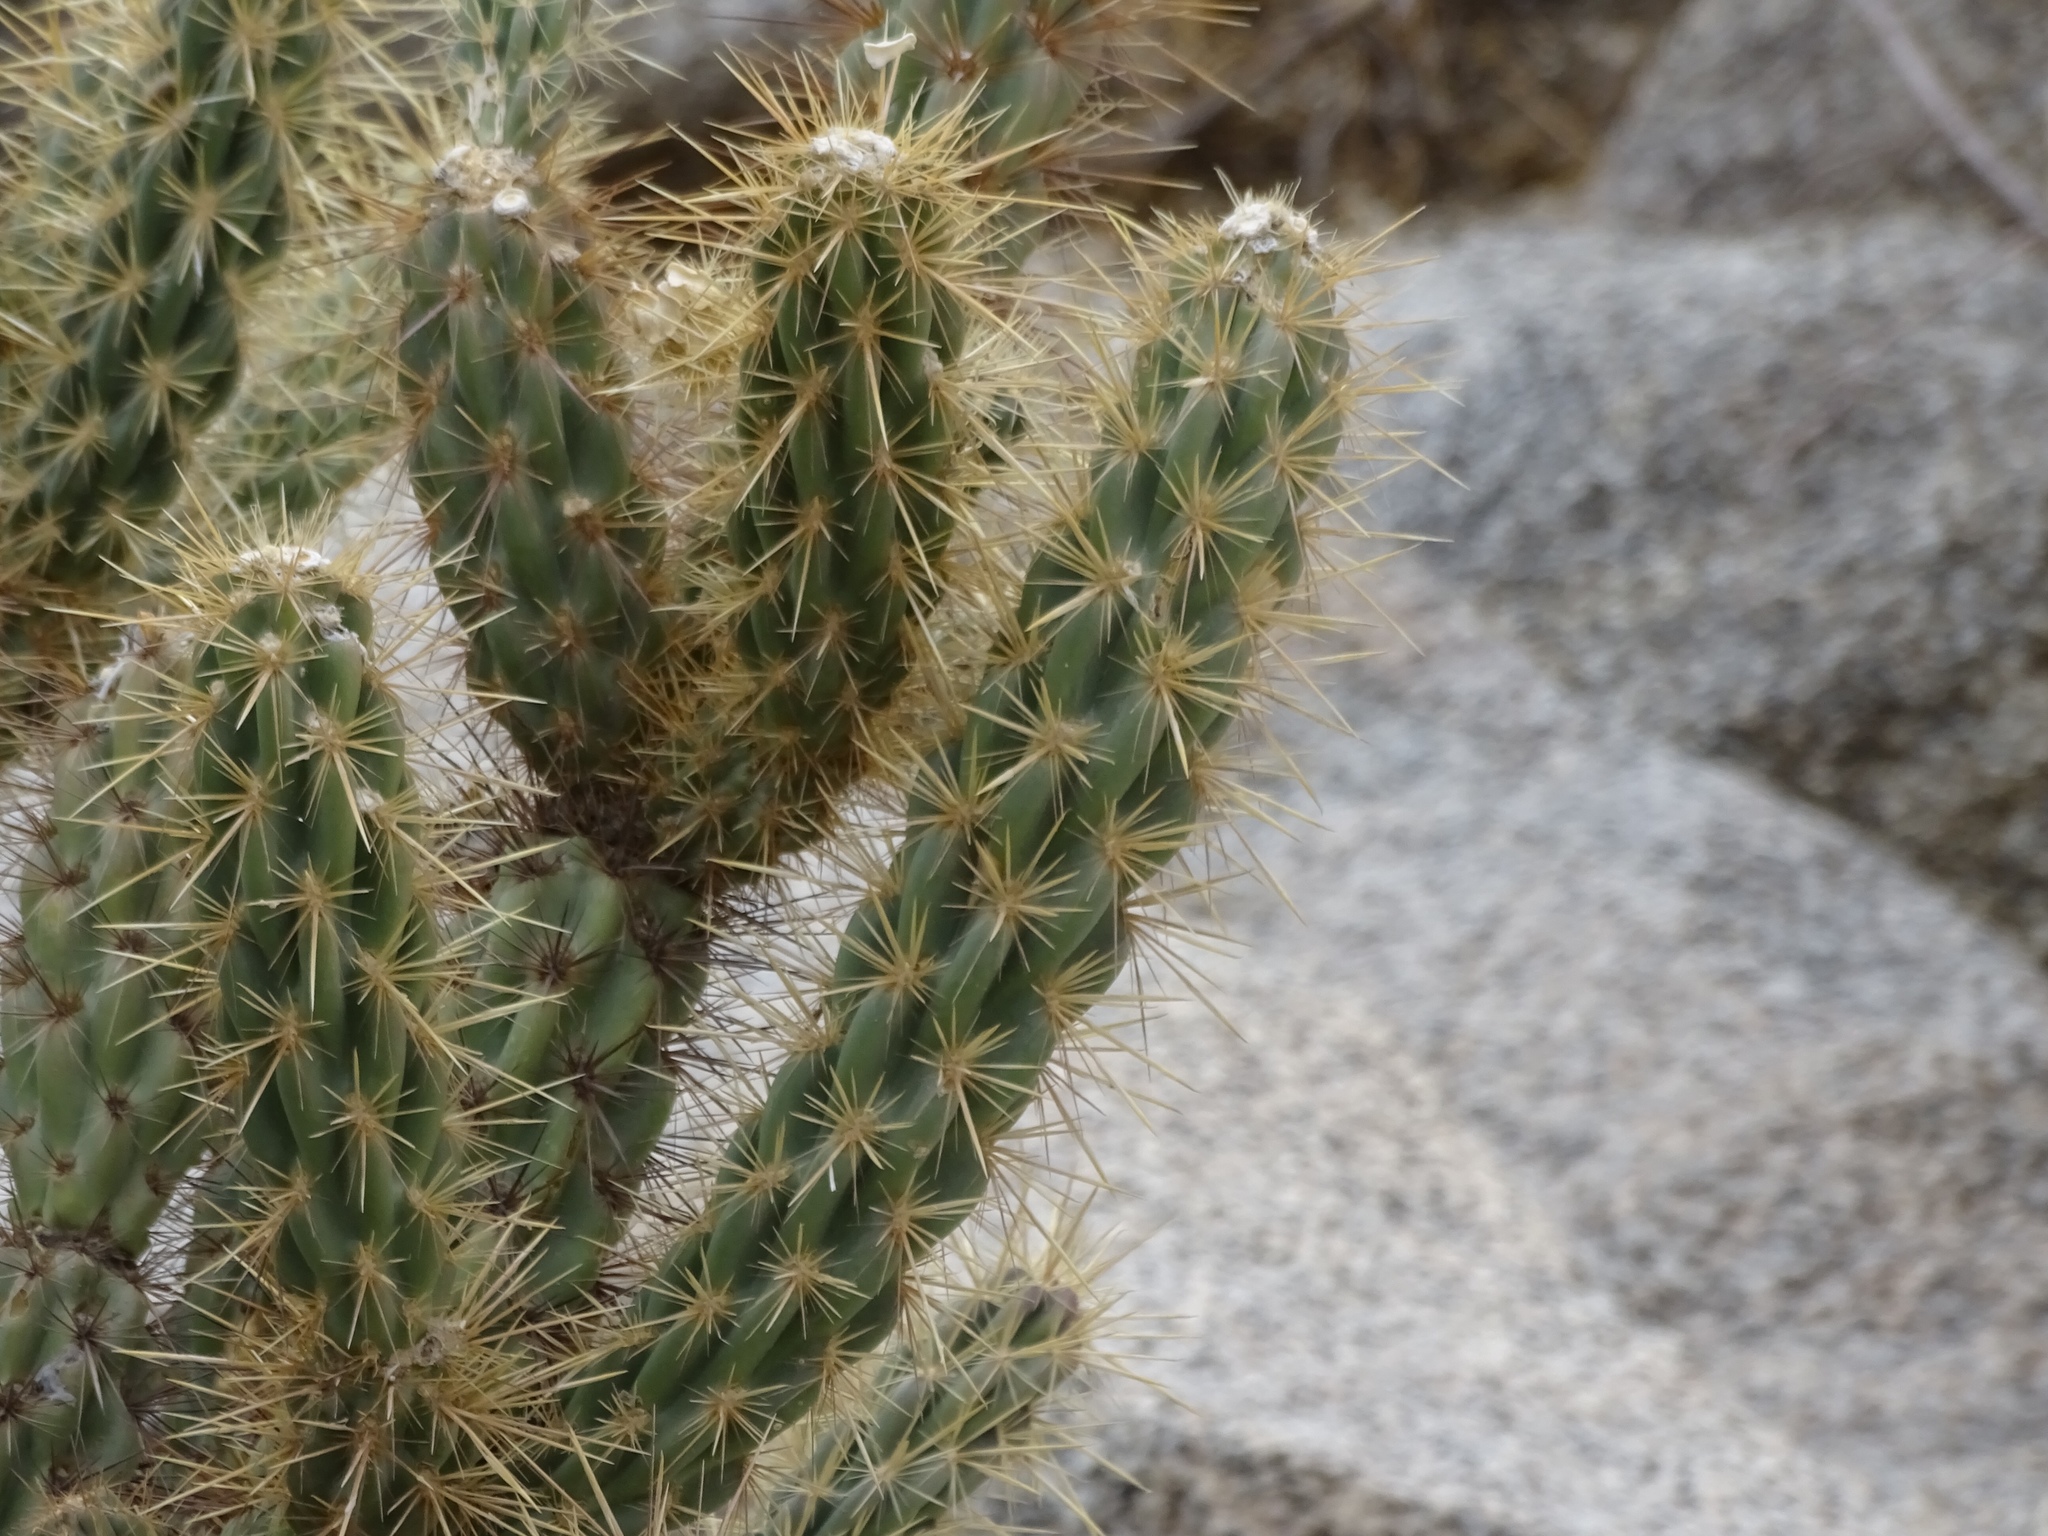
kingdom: Plantae
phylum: Tracheophyta
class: Magnoliopsida
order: Caryophyllales
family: Cactaceae
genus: Cylindropuntia
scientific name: Cylindropuntia ganderi
